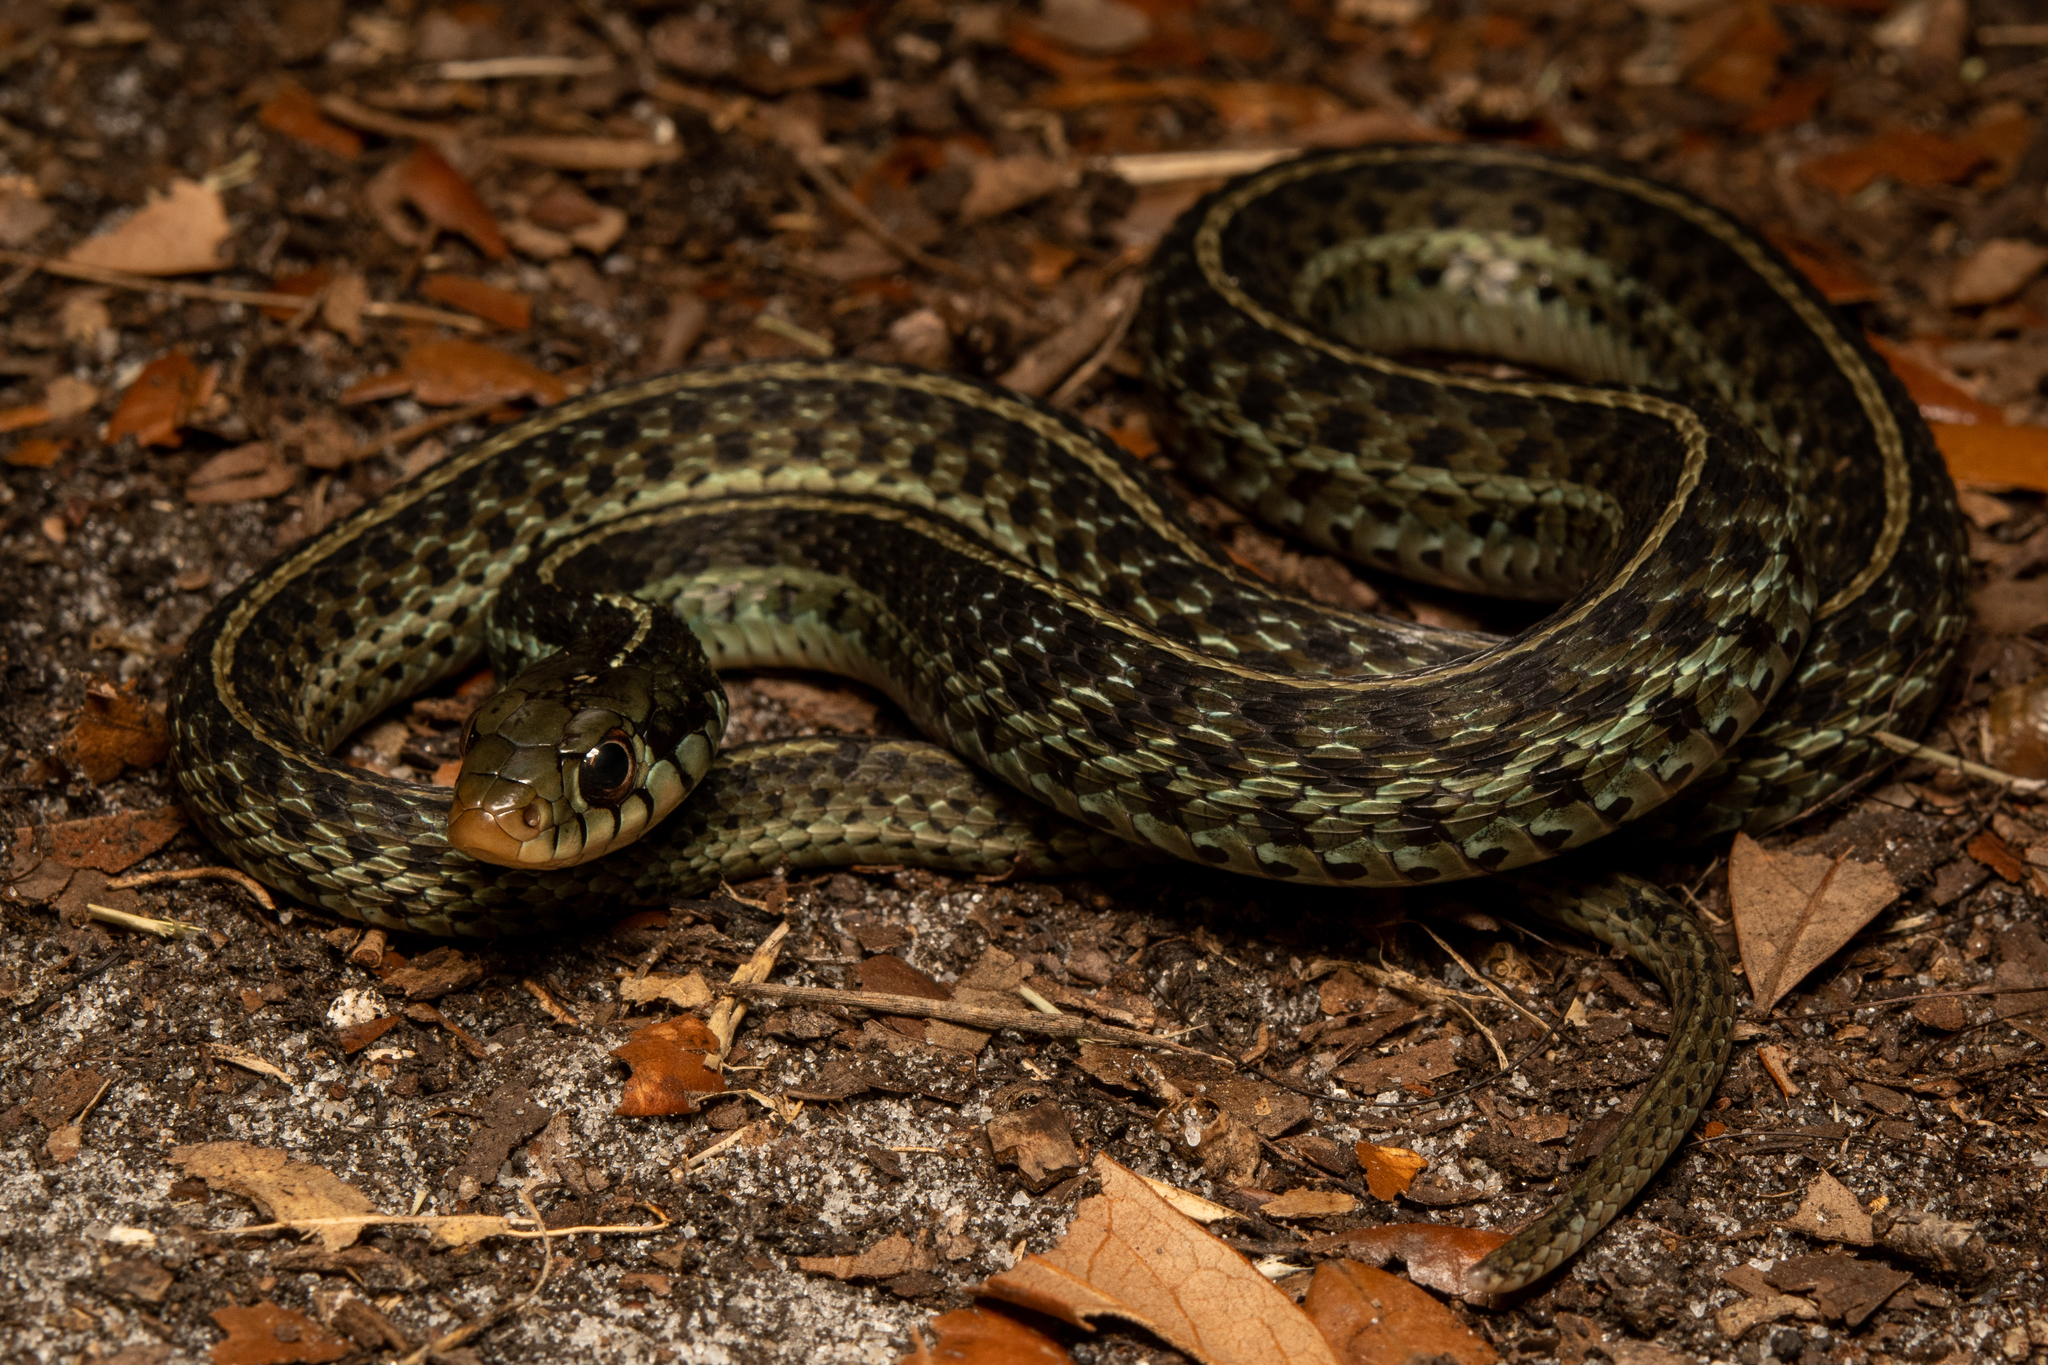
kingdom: Animalia
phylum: Chordata
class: Squamata
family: Colubridae
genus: Thamnophis
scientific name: Thamnophis sirtalis
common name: Common garter snake
